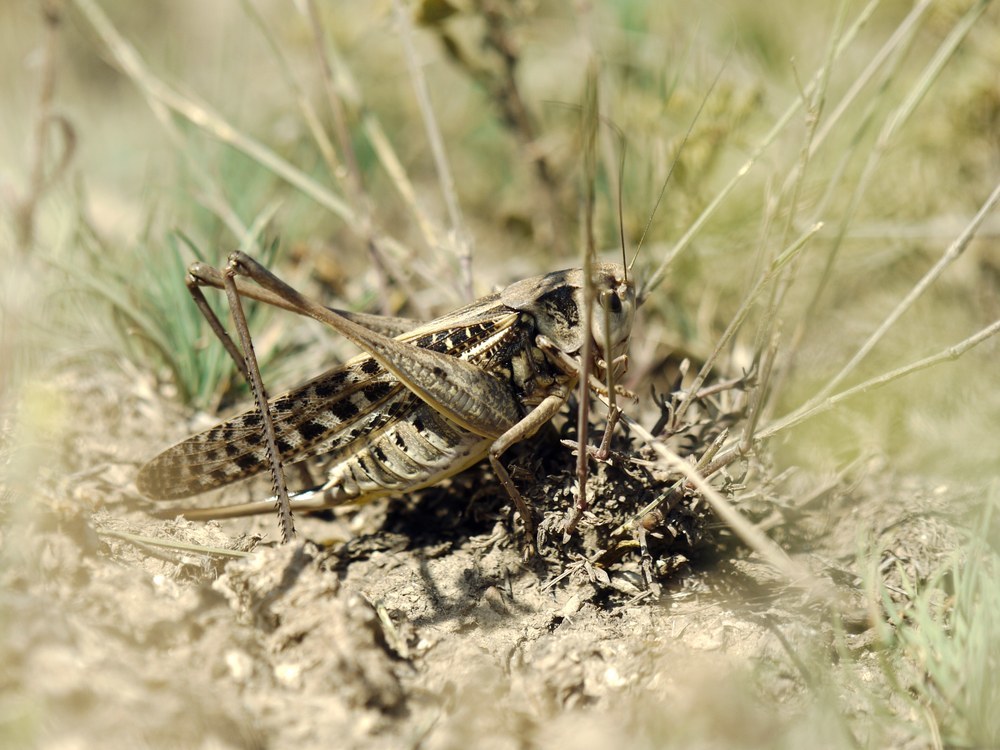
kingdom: Animalia
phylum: Arthropoda
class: Insecta
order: Orthoptera
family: Tettigoniidae
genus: Decticus
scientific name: Decticus verrucivorus
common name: Wart-biter
